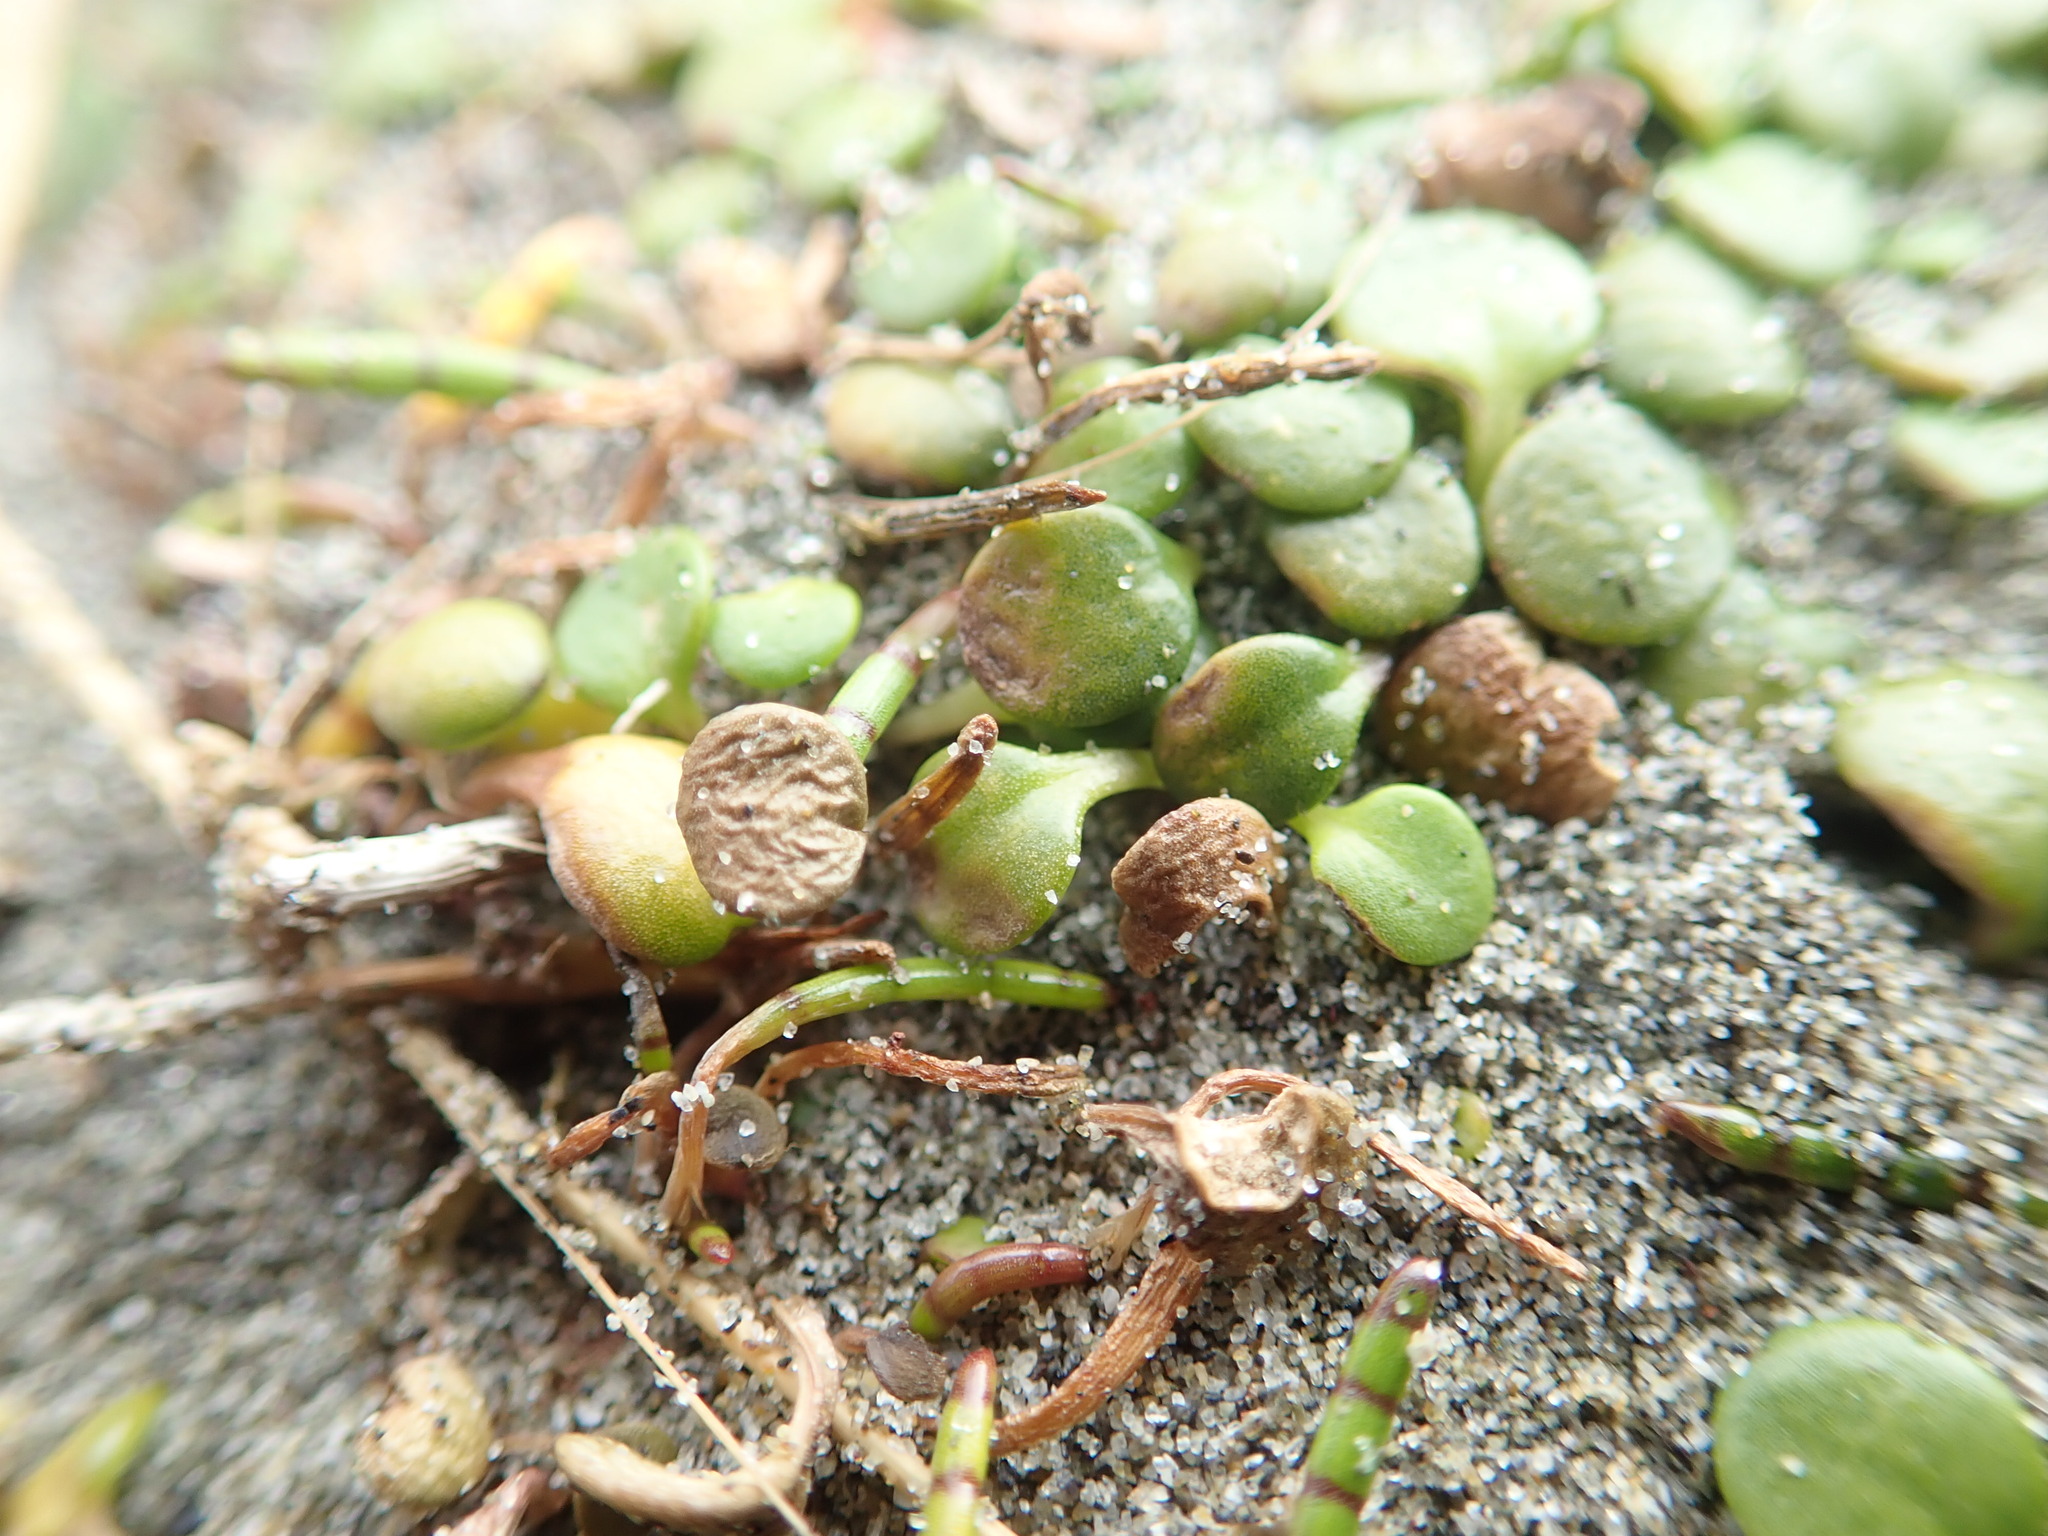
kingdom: Plantae
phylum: Tracheophyta
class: Magnoliopsida
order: Asterales
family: Goodeniaceae
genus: Goodenia
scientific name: Goodenia heenanii
